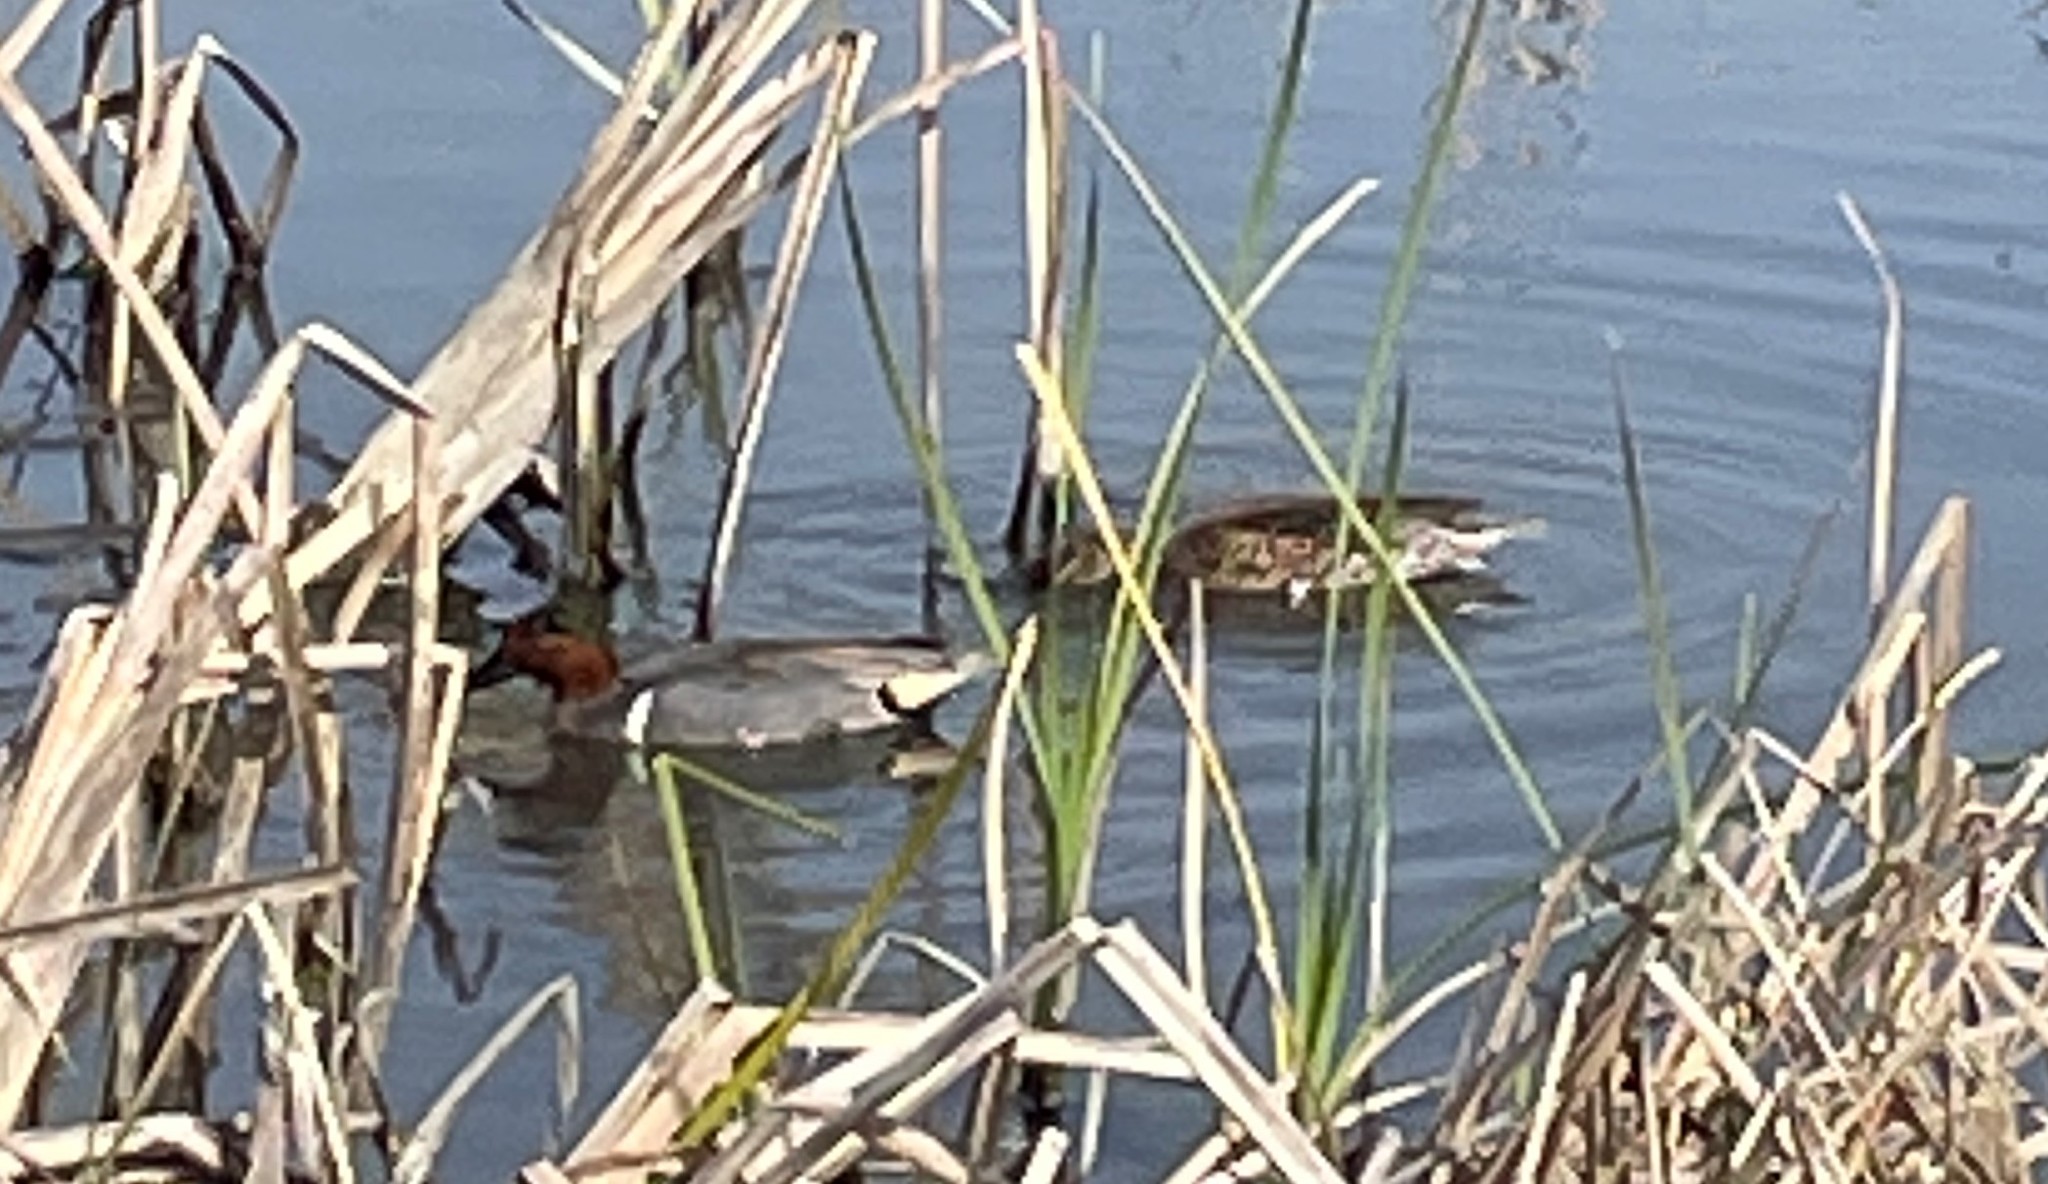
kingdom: Animalia
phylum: Chordata
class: Aves
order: Anseriformes
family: Anatidae
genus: Anas
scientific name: Anas crecca
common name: Eurasian teal
